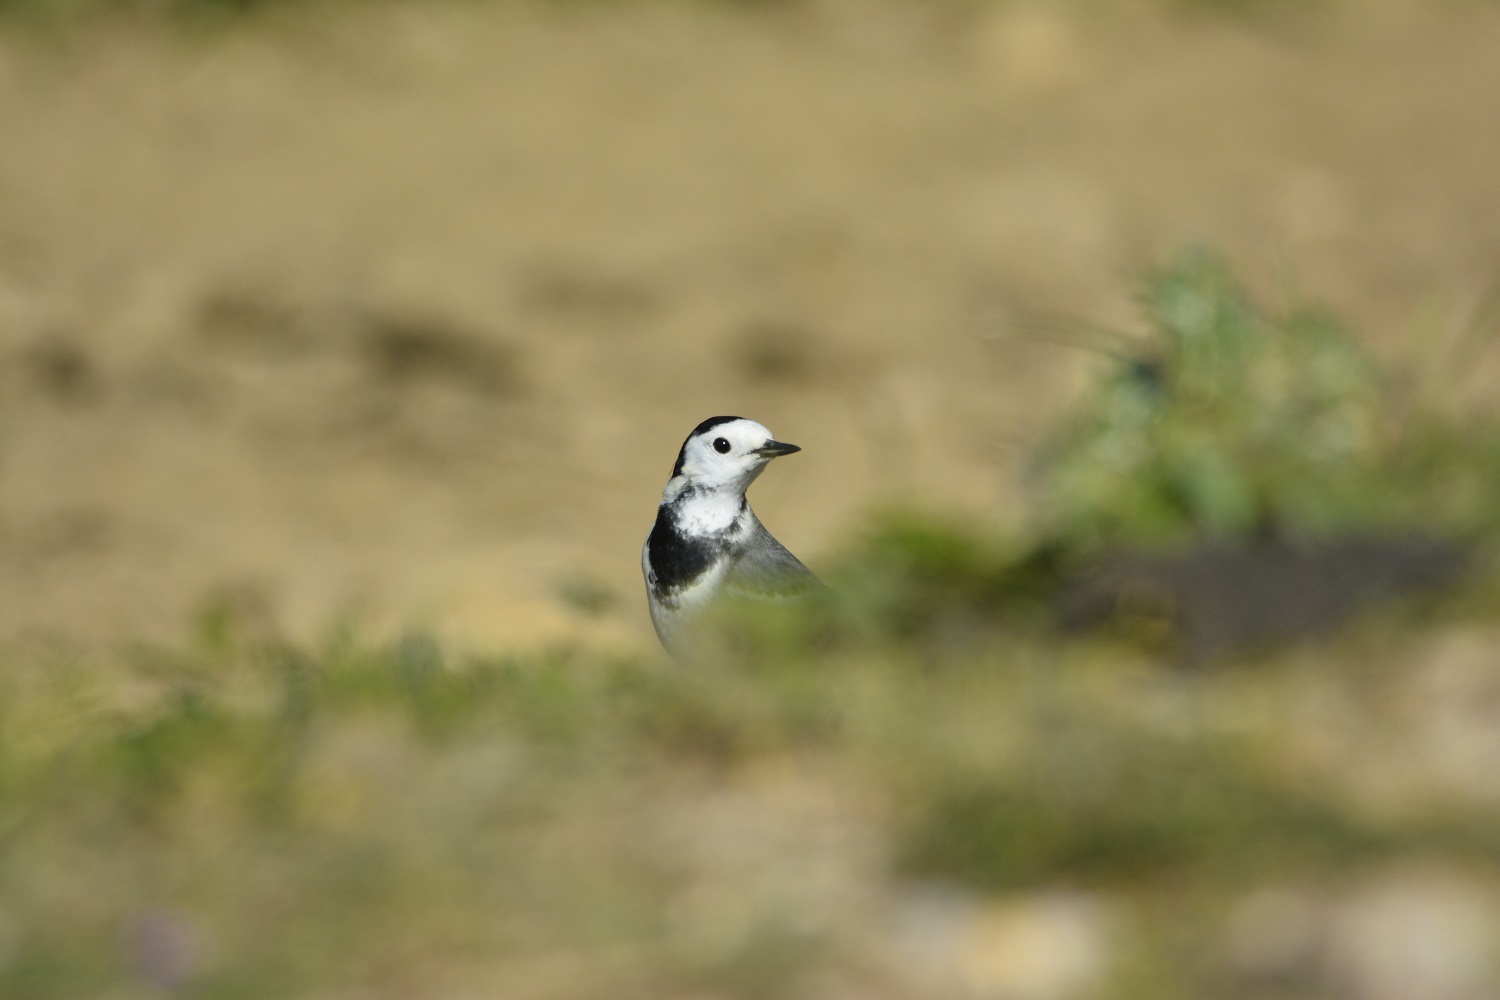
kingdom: Animalia
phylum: Chordata
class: Aves
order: Passeriformes
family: Motacillidae
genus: Motacilla
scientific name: Motacilla alba
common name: White wagtail
